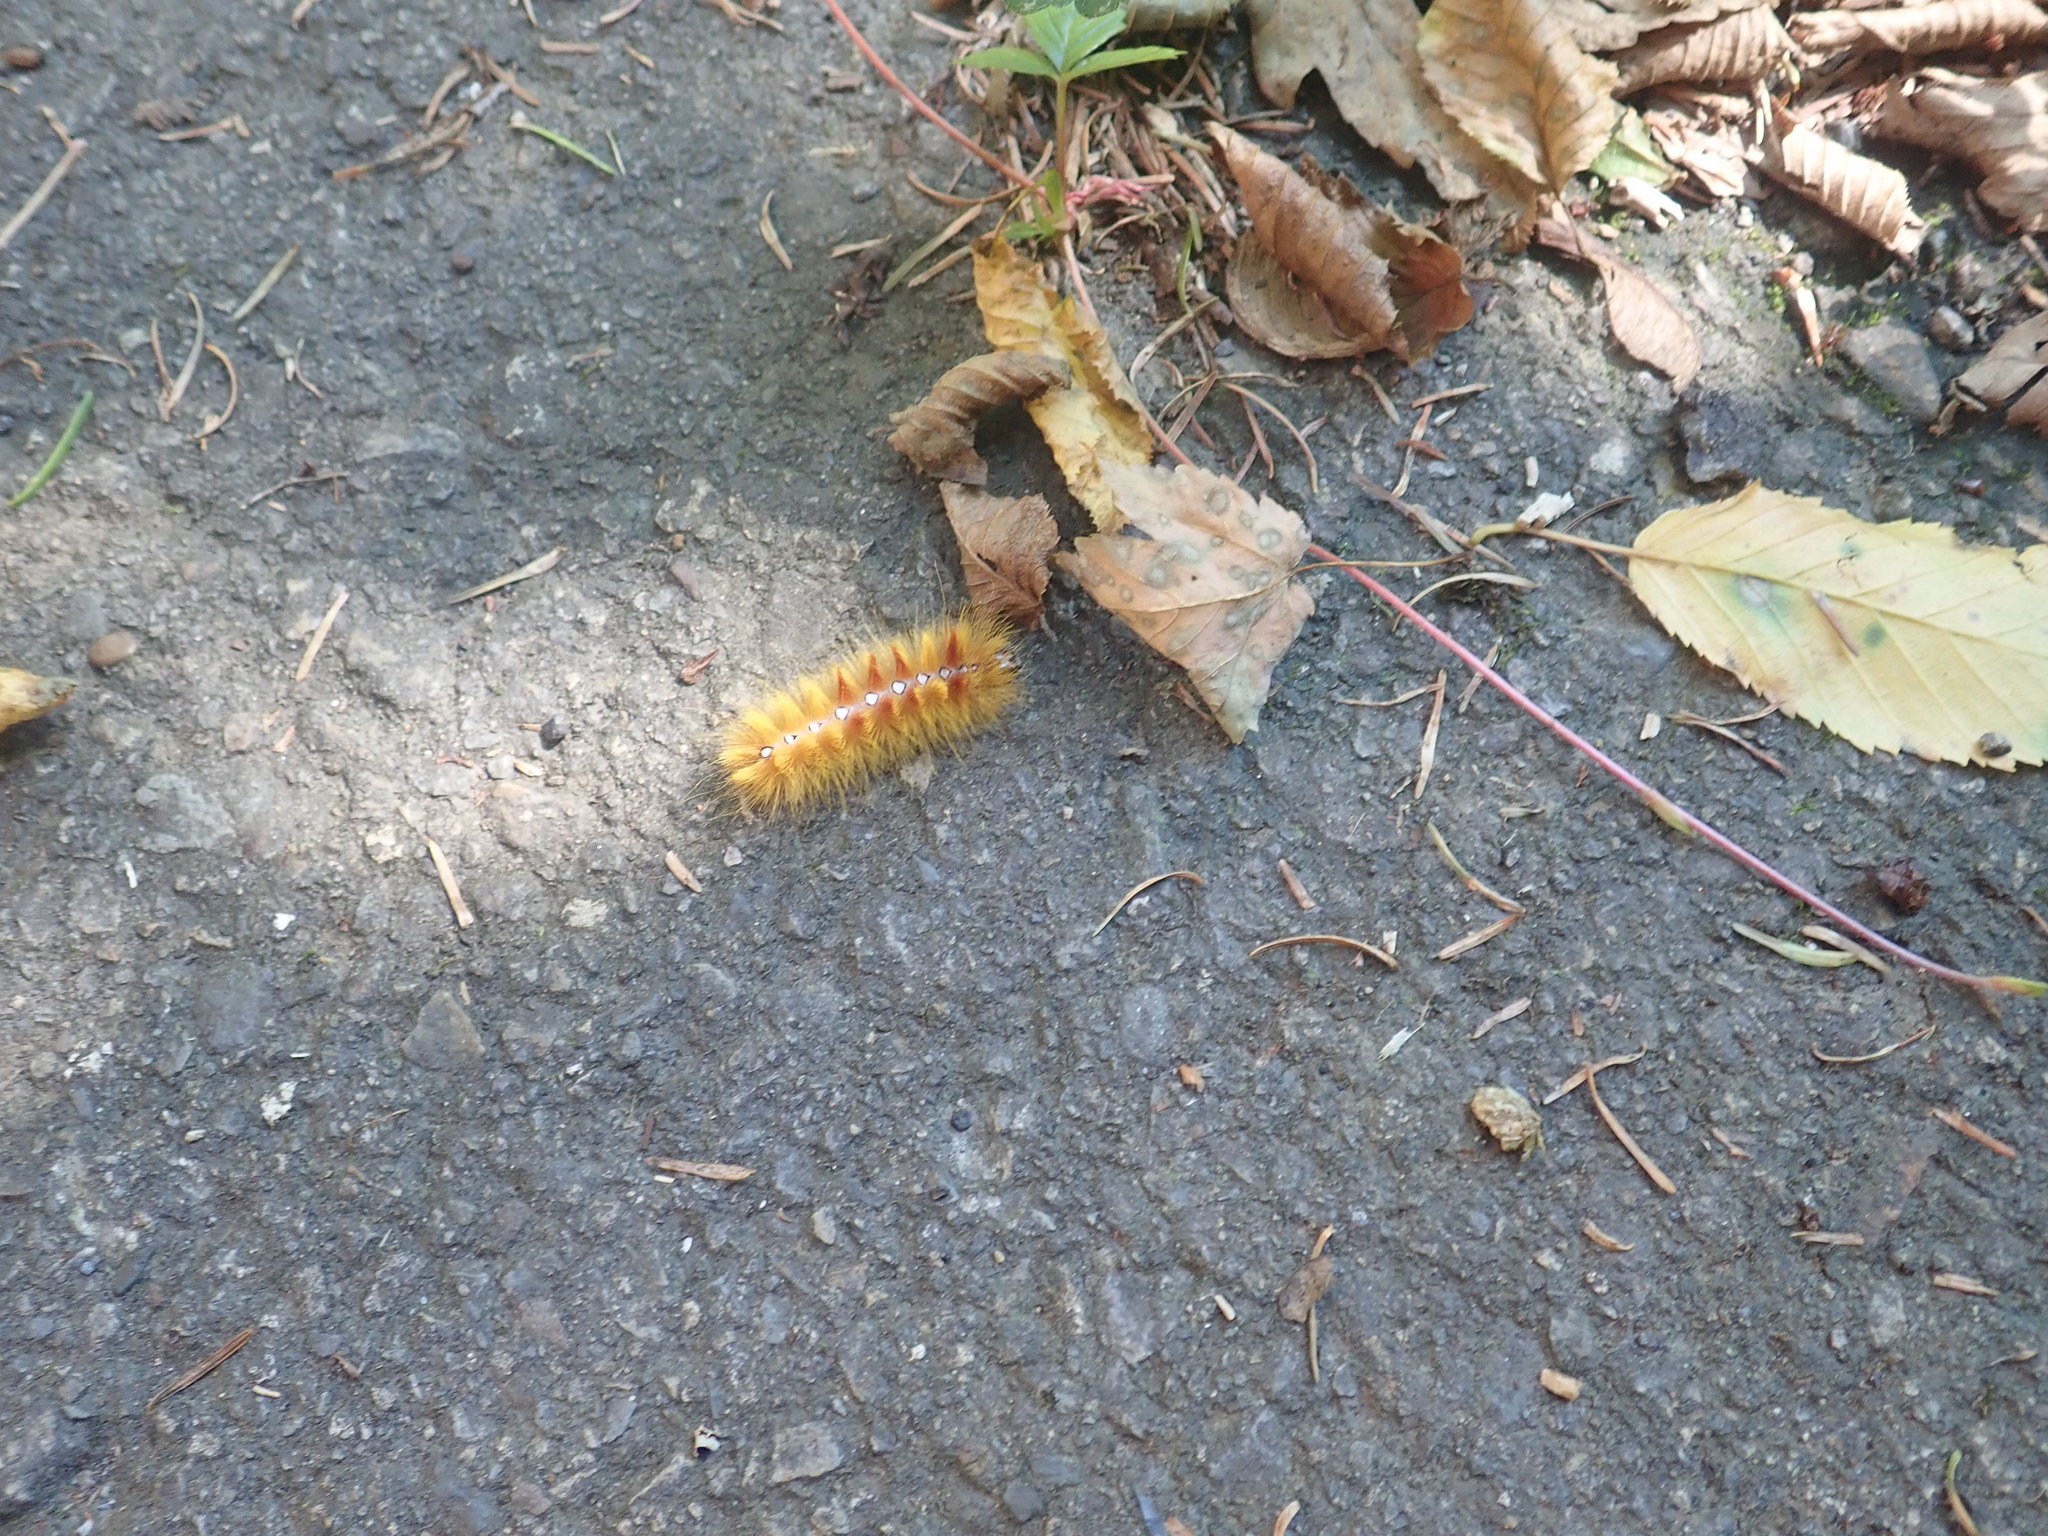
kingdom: Animalia
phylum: Arthropoda
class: Insecta
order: Lepidoptera
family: Noctuidae
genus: Acronicta
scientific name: Acronicta aceris
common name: Sycamore
